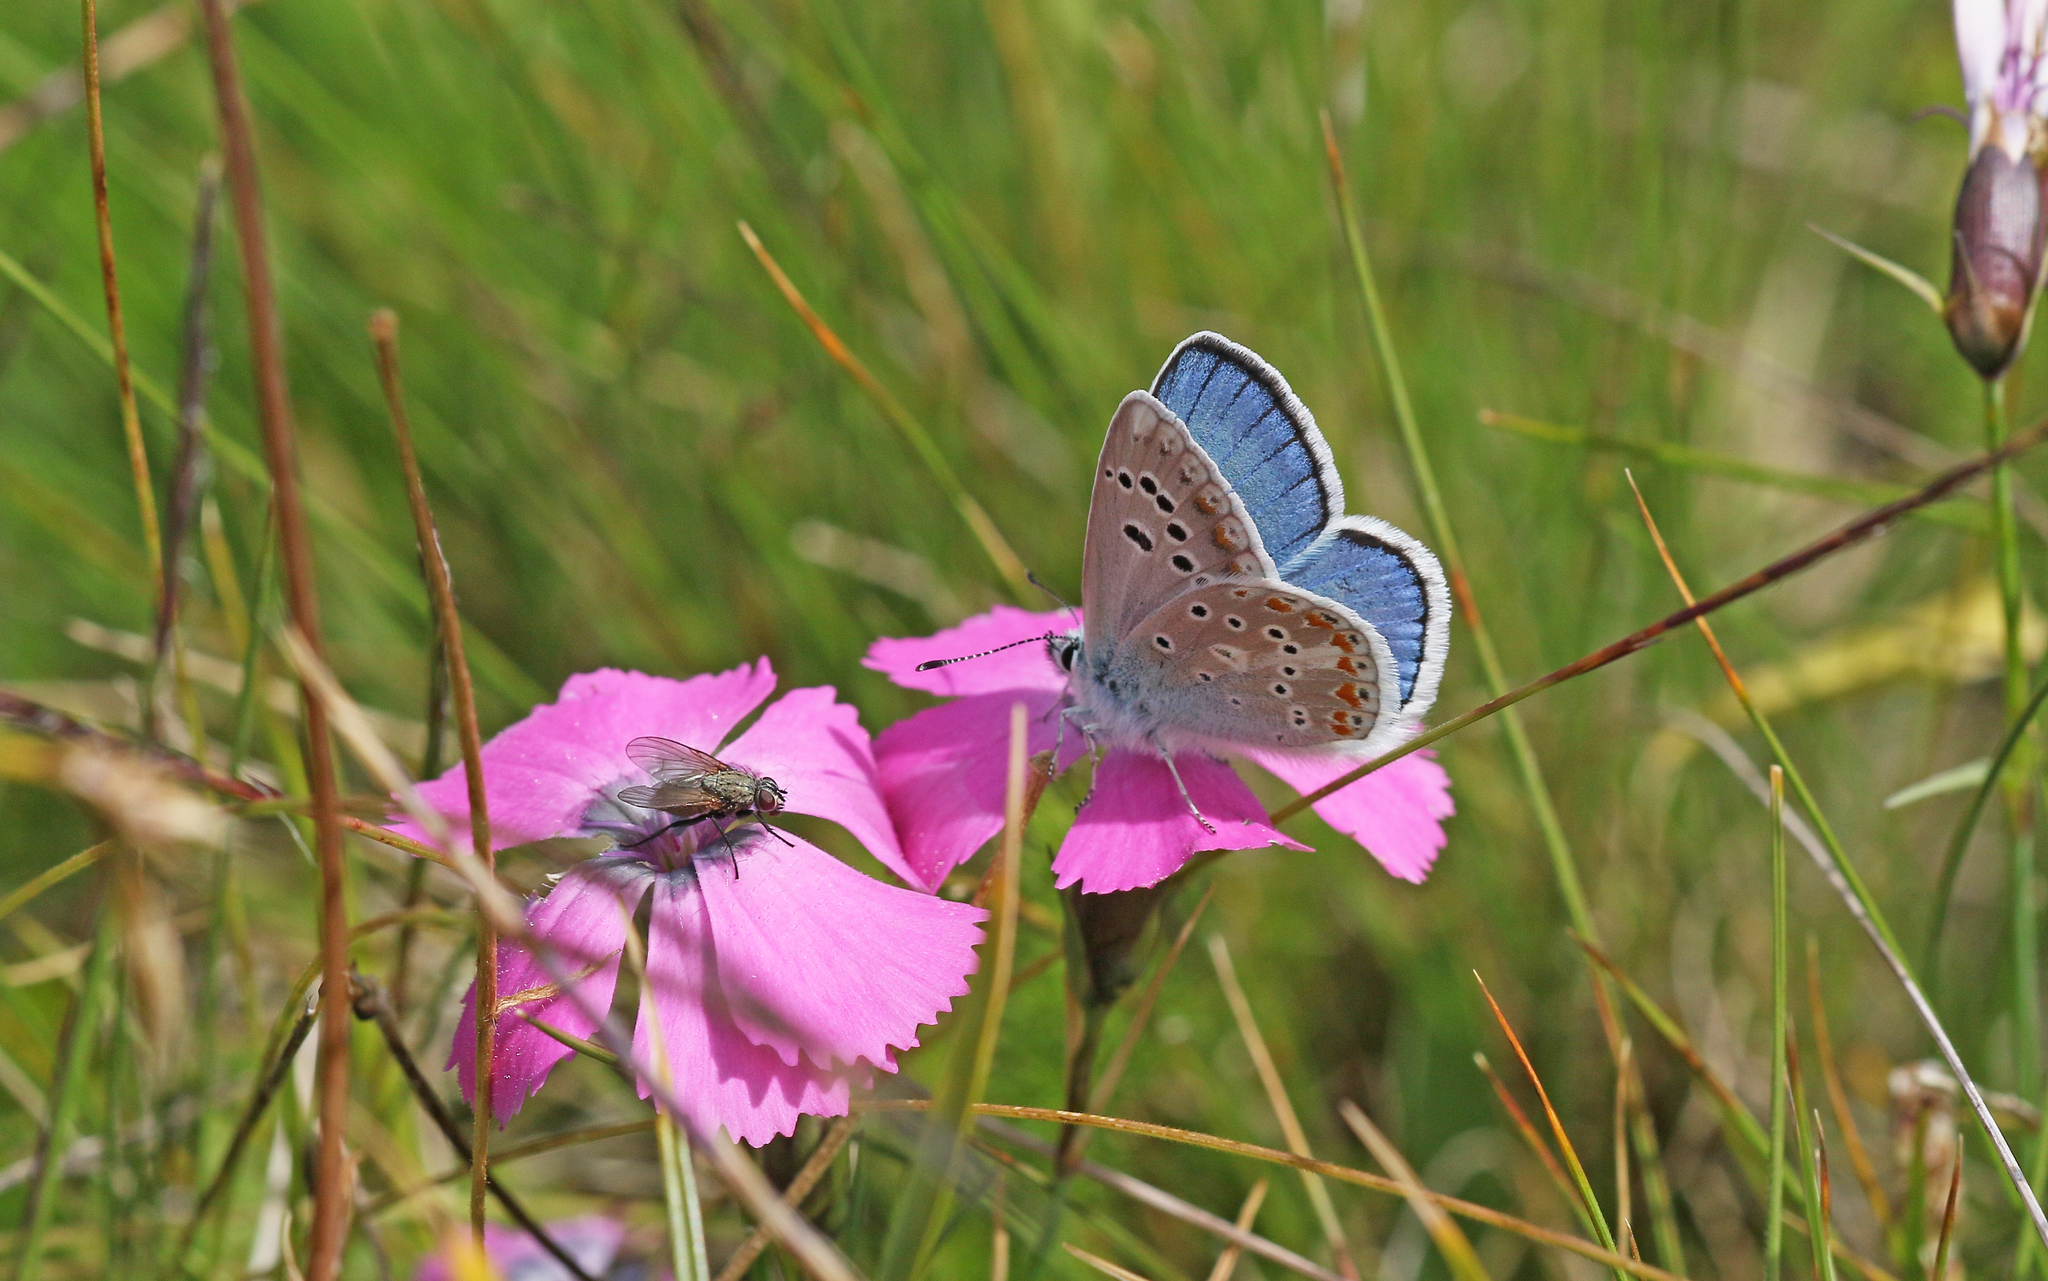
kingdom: Animalia
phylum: Arthropoda
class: Insecta
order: Lepidoptera
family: Lycaenidae
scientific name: Lycaenidae
